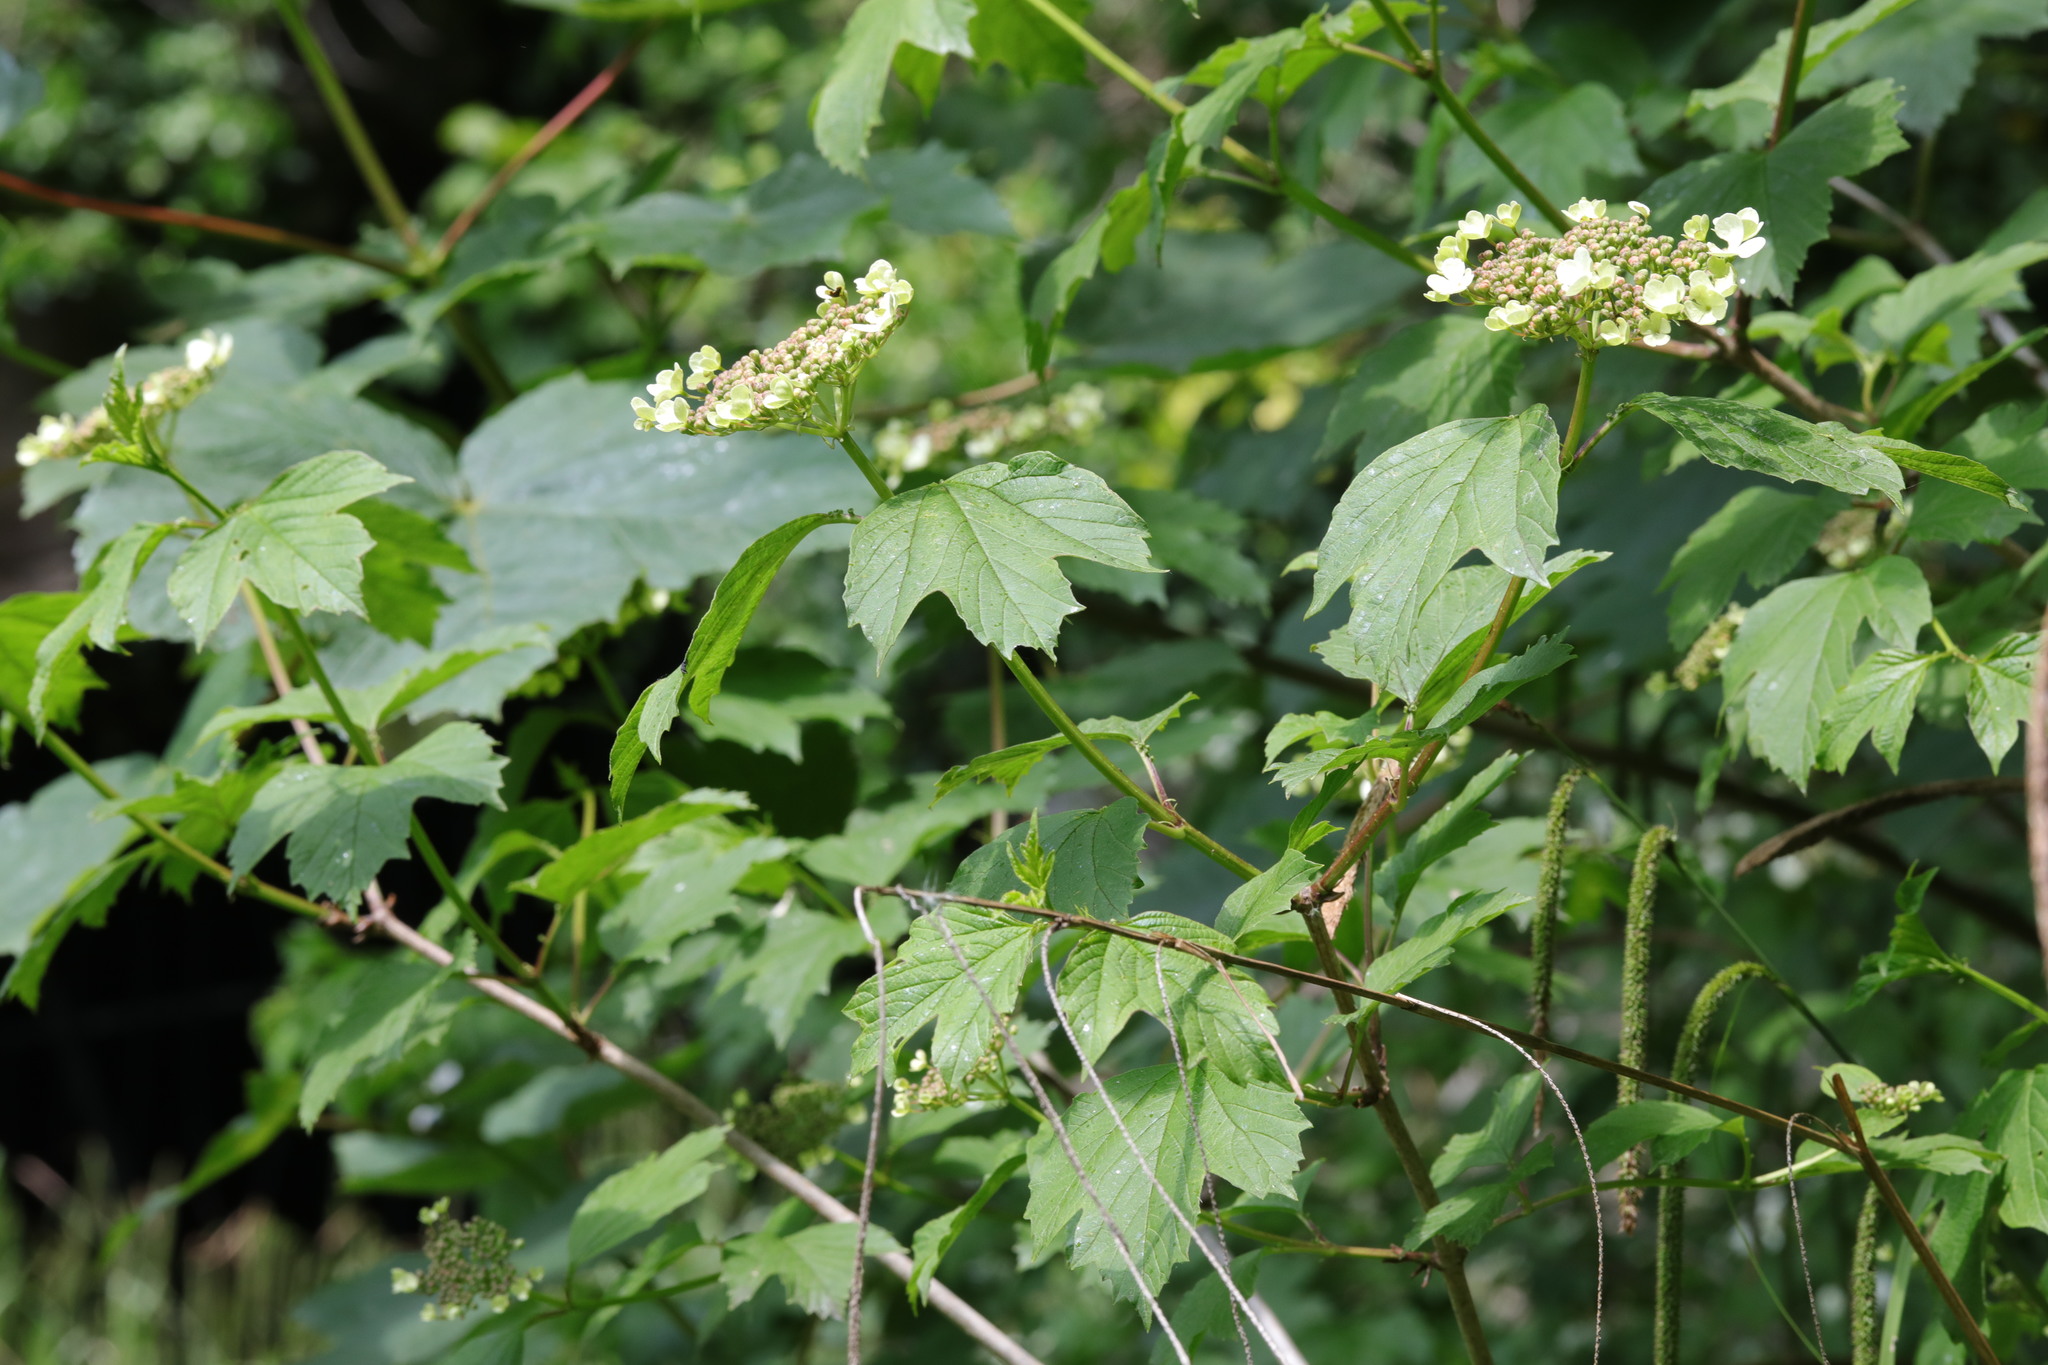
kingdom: Plantae
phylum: Tracheophyta
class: Magnoliopsida
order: Dipsacales
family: Viburnaceae
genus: Viburnum
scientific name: Viburnum opulus
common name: Guelder-rose
